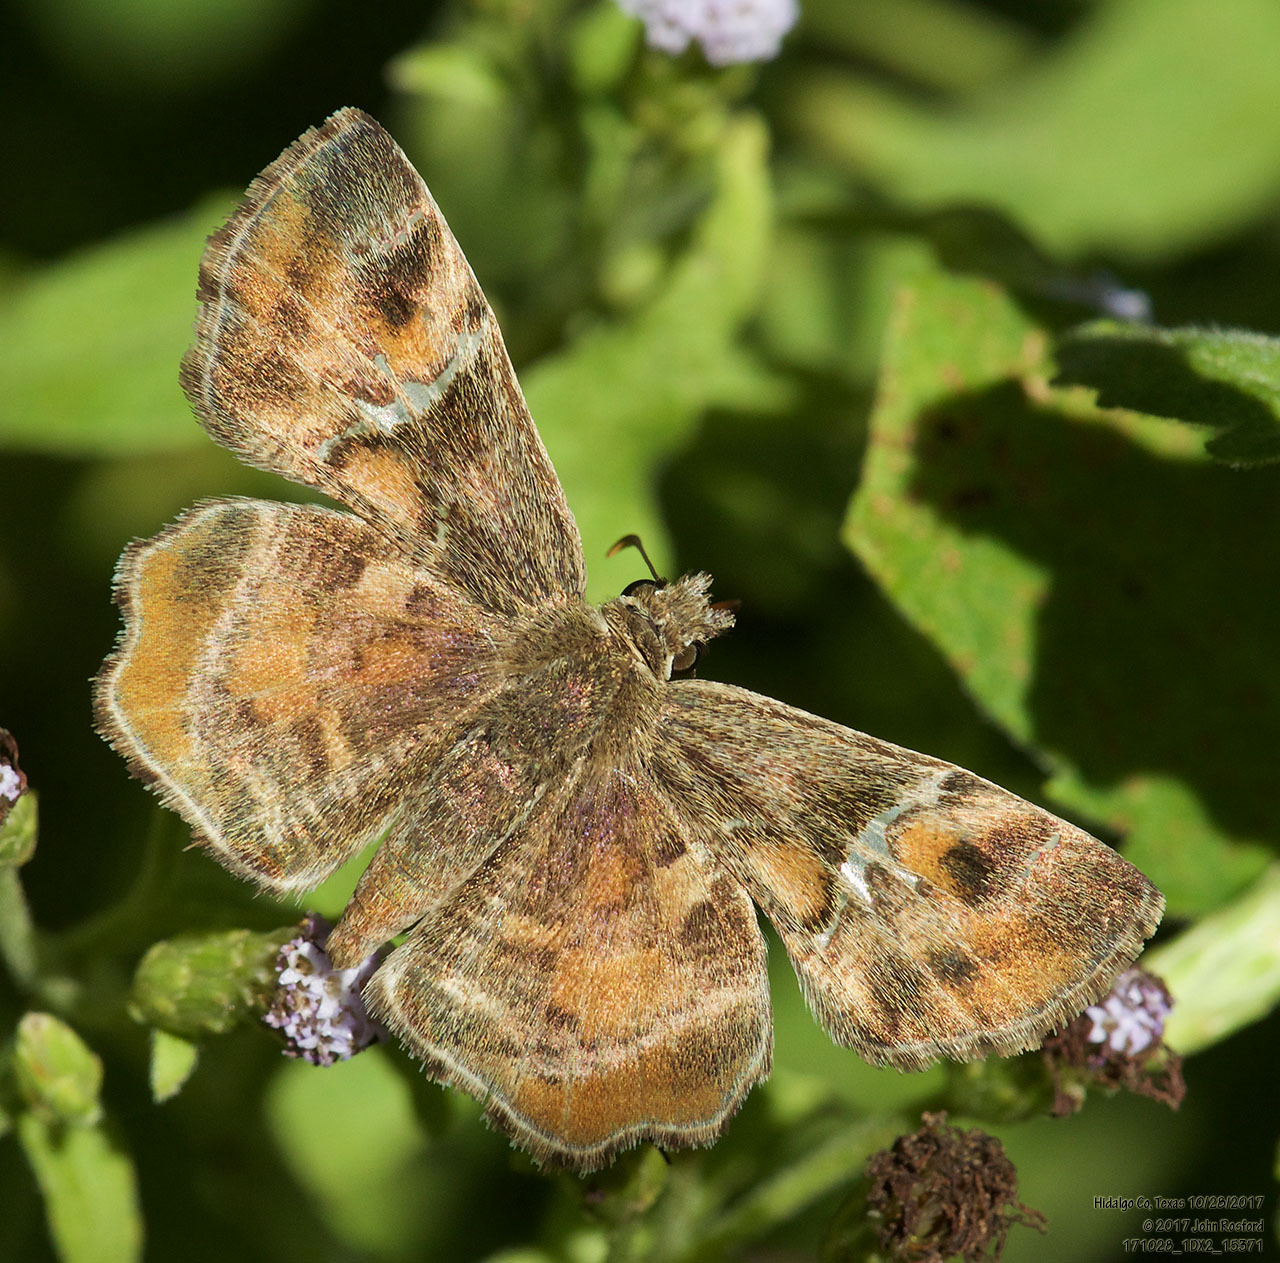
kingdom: Animalia
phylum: Arthropoda
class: Insecta
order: Lepidoptera
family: Hesperiidae
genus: Systasea
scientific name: Systasea pulverulenta
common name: Texas powdered skipper
